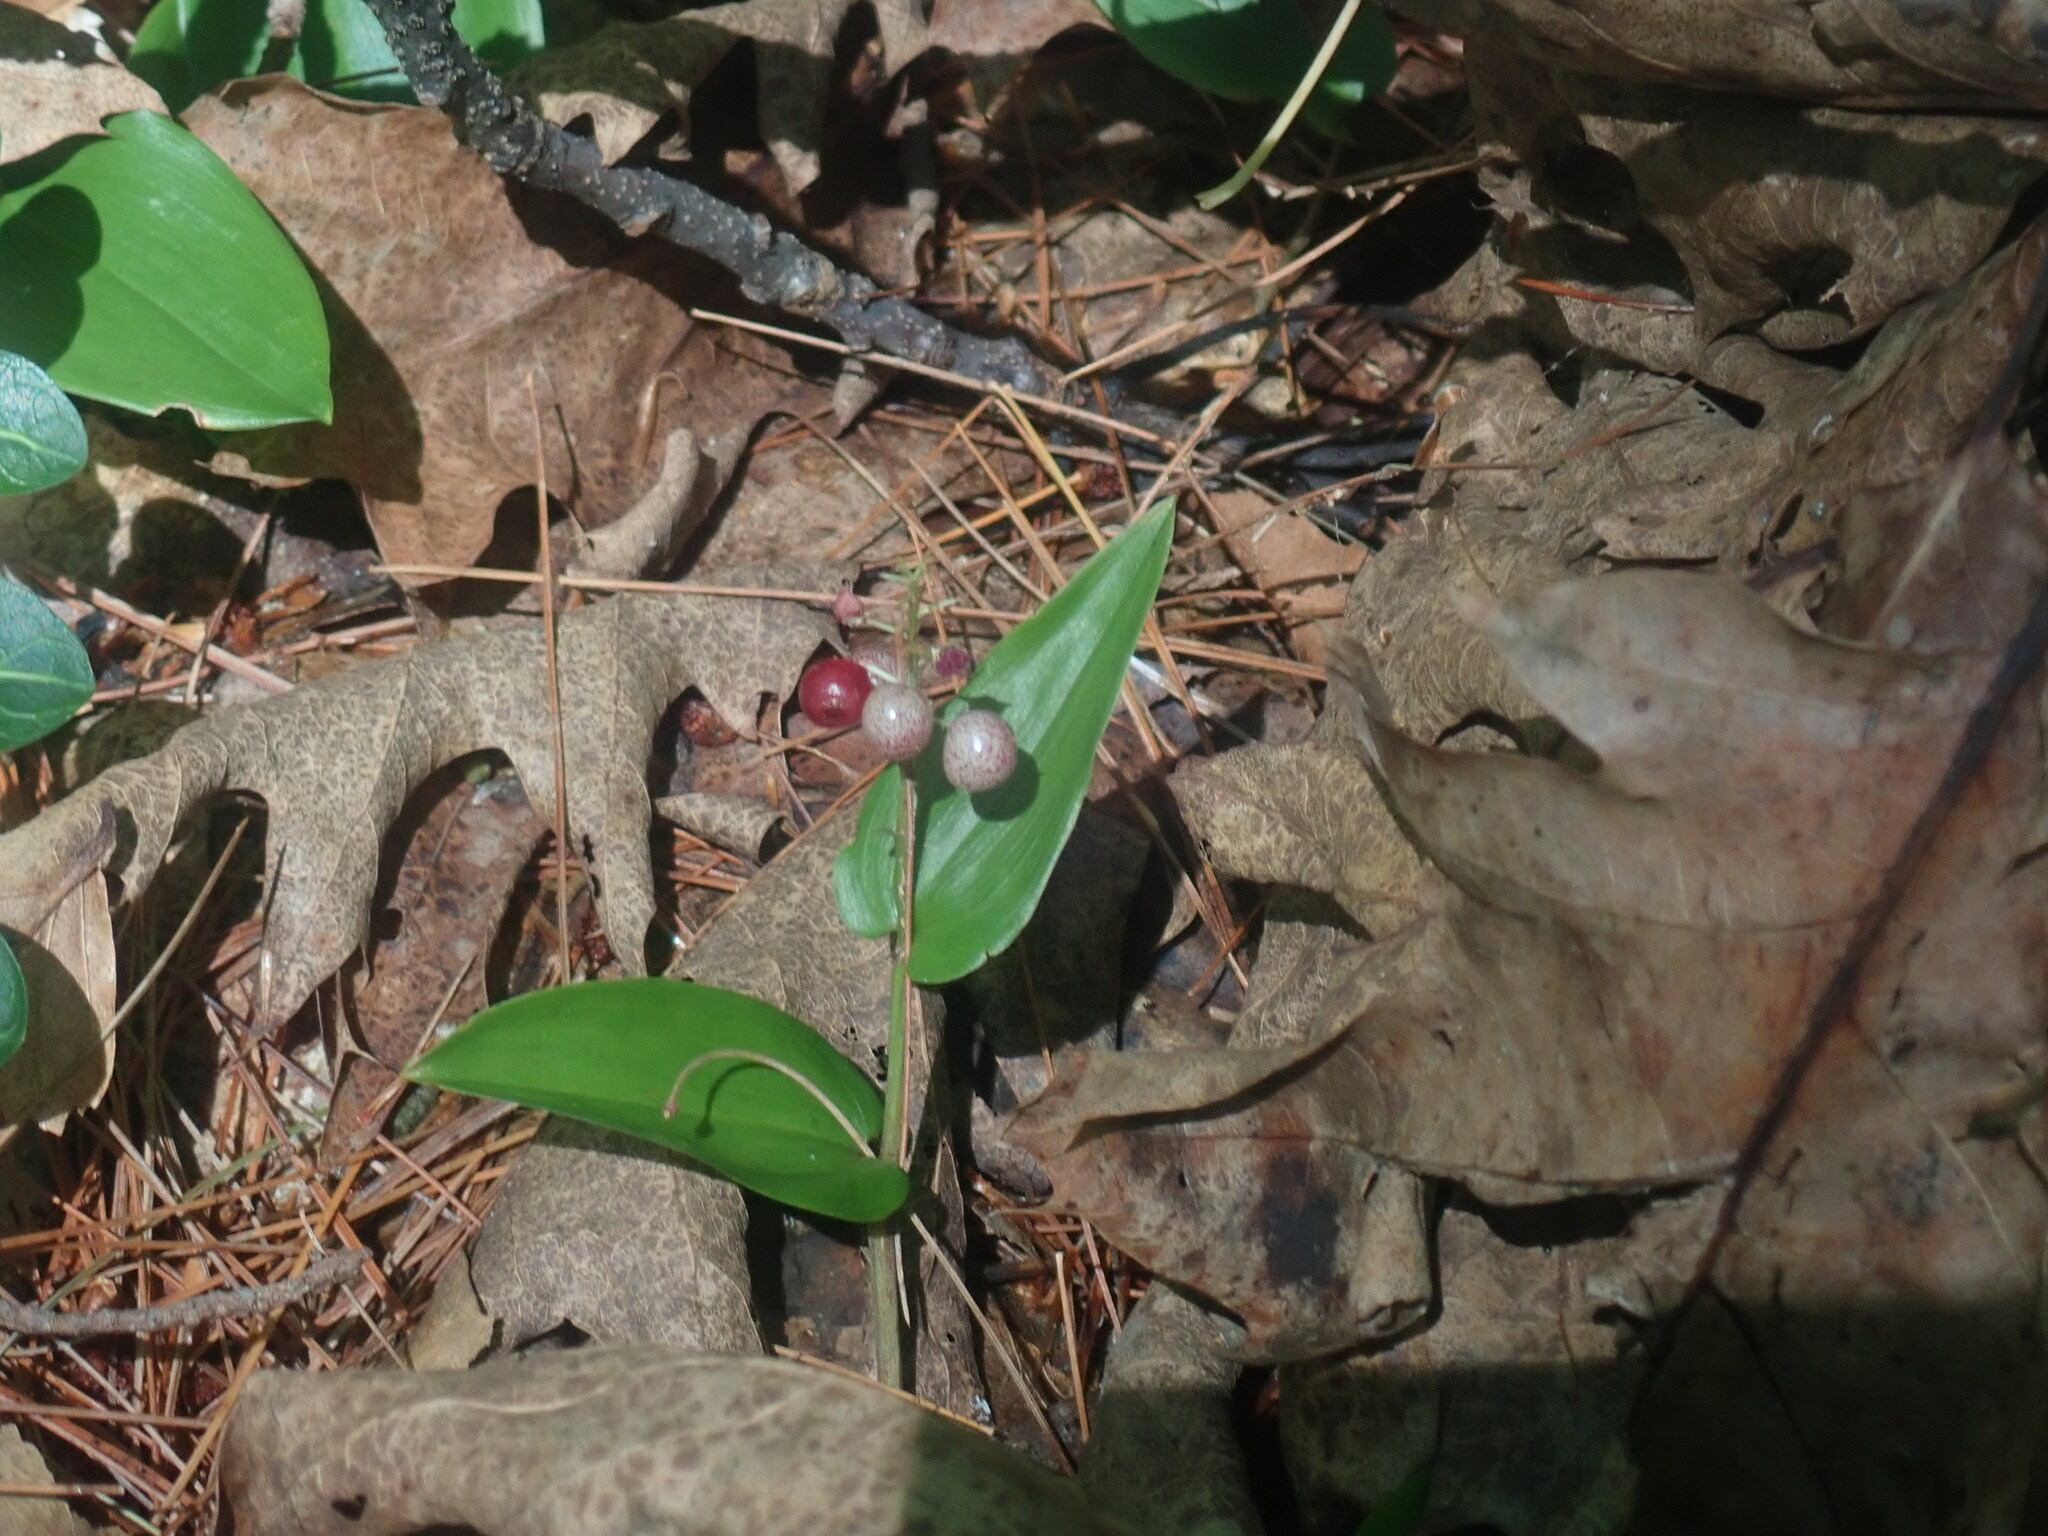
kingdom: Plantae
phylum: Tracheophyta
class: Liliopsida
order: Asparagales
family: Asparagaceae
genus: Maianthemum
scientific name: Maianthemum canadense
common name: False lily-of-the-valley
